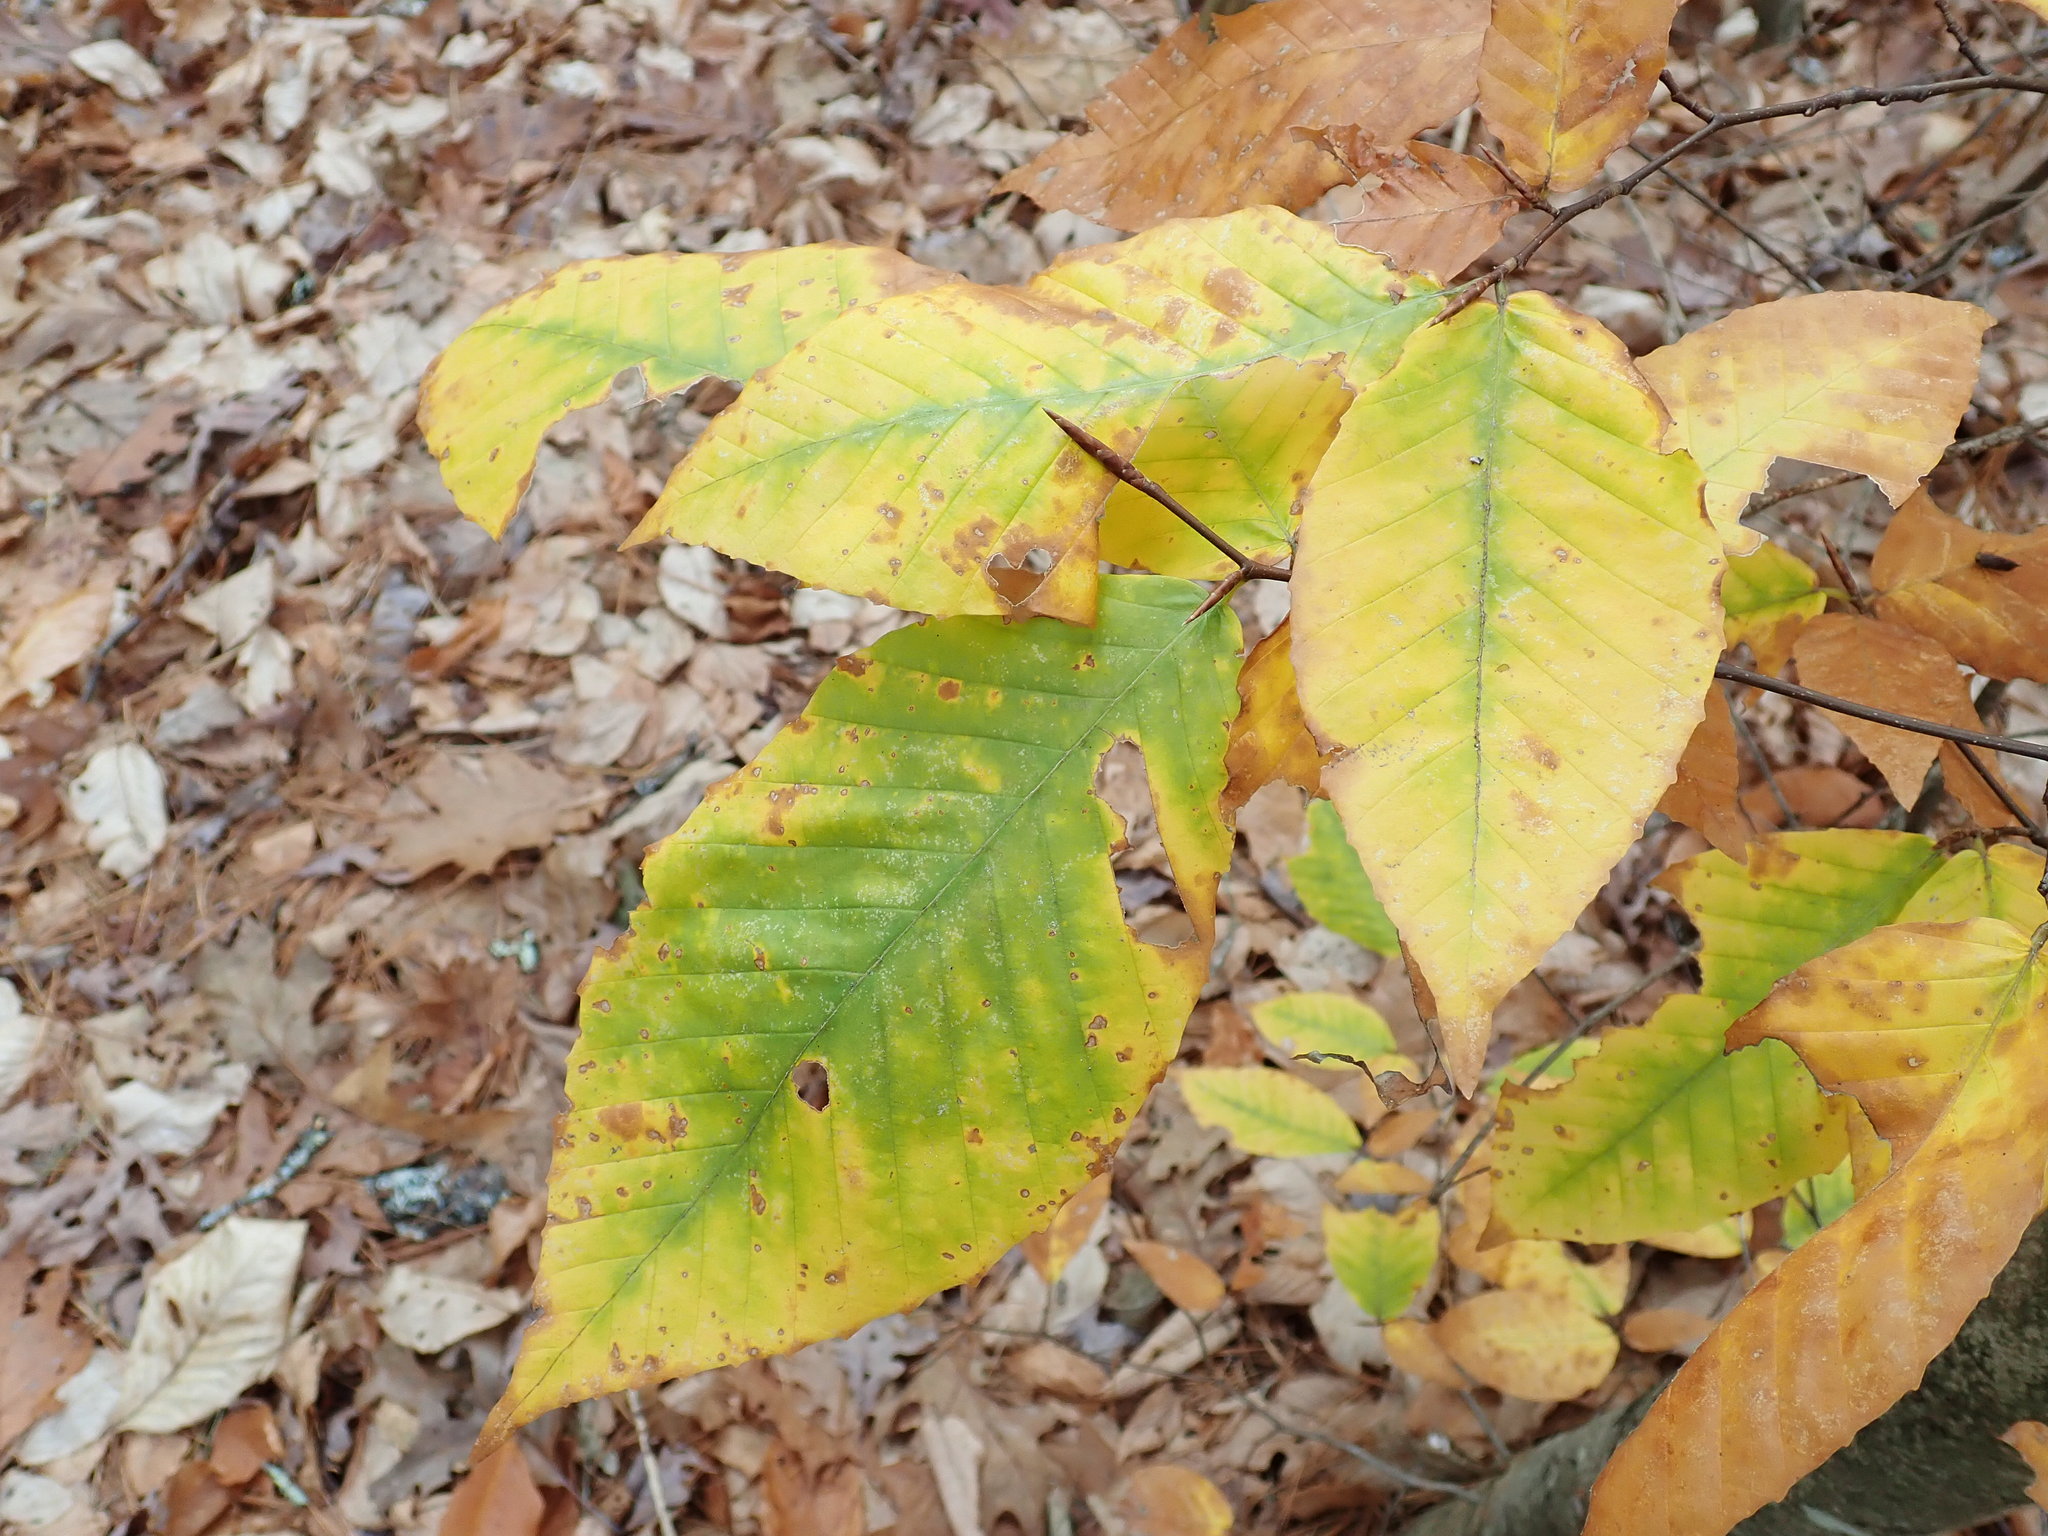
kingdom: Plantae
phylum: Tracheophyta
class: Magnoliopsida
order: Fagales
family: Fagaceae
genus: Fagus
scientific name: Fagus grandifolia
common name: American beech
